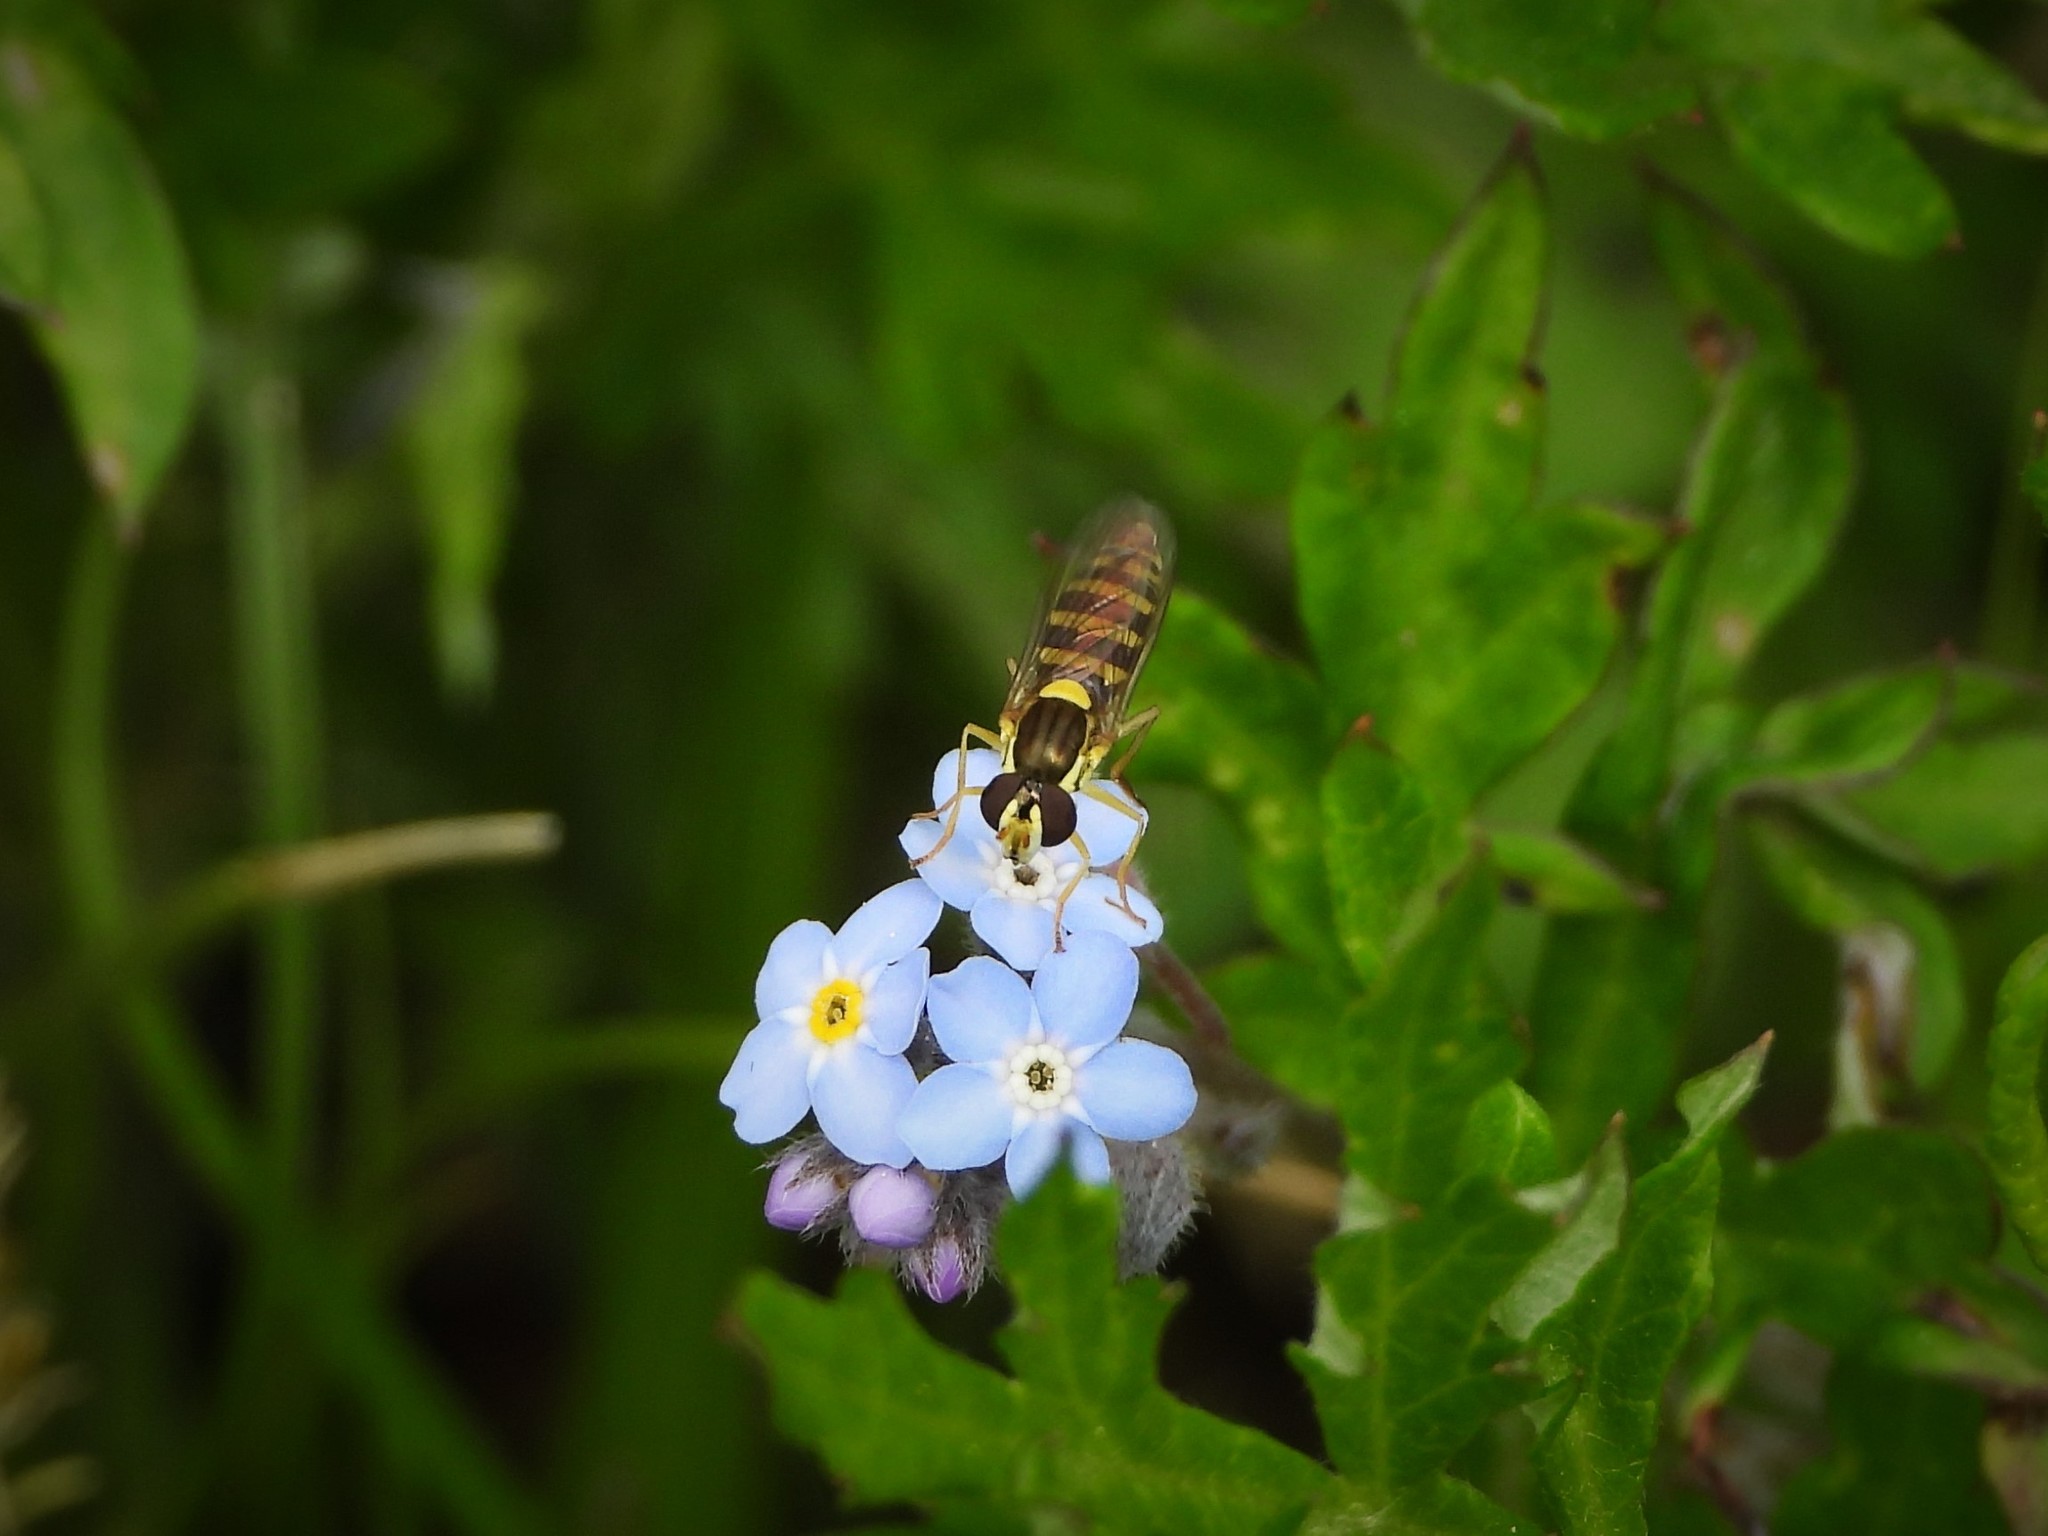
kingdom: Animalia
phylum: Arthropoda
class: Insecta
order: Diptera
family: Syrphidae
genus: Sphaerophoria
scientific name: Sphaerophoria
